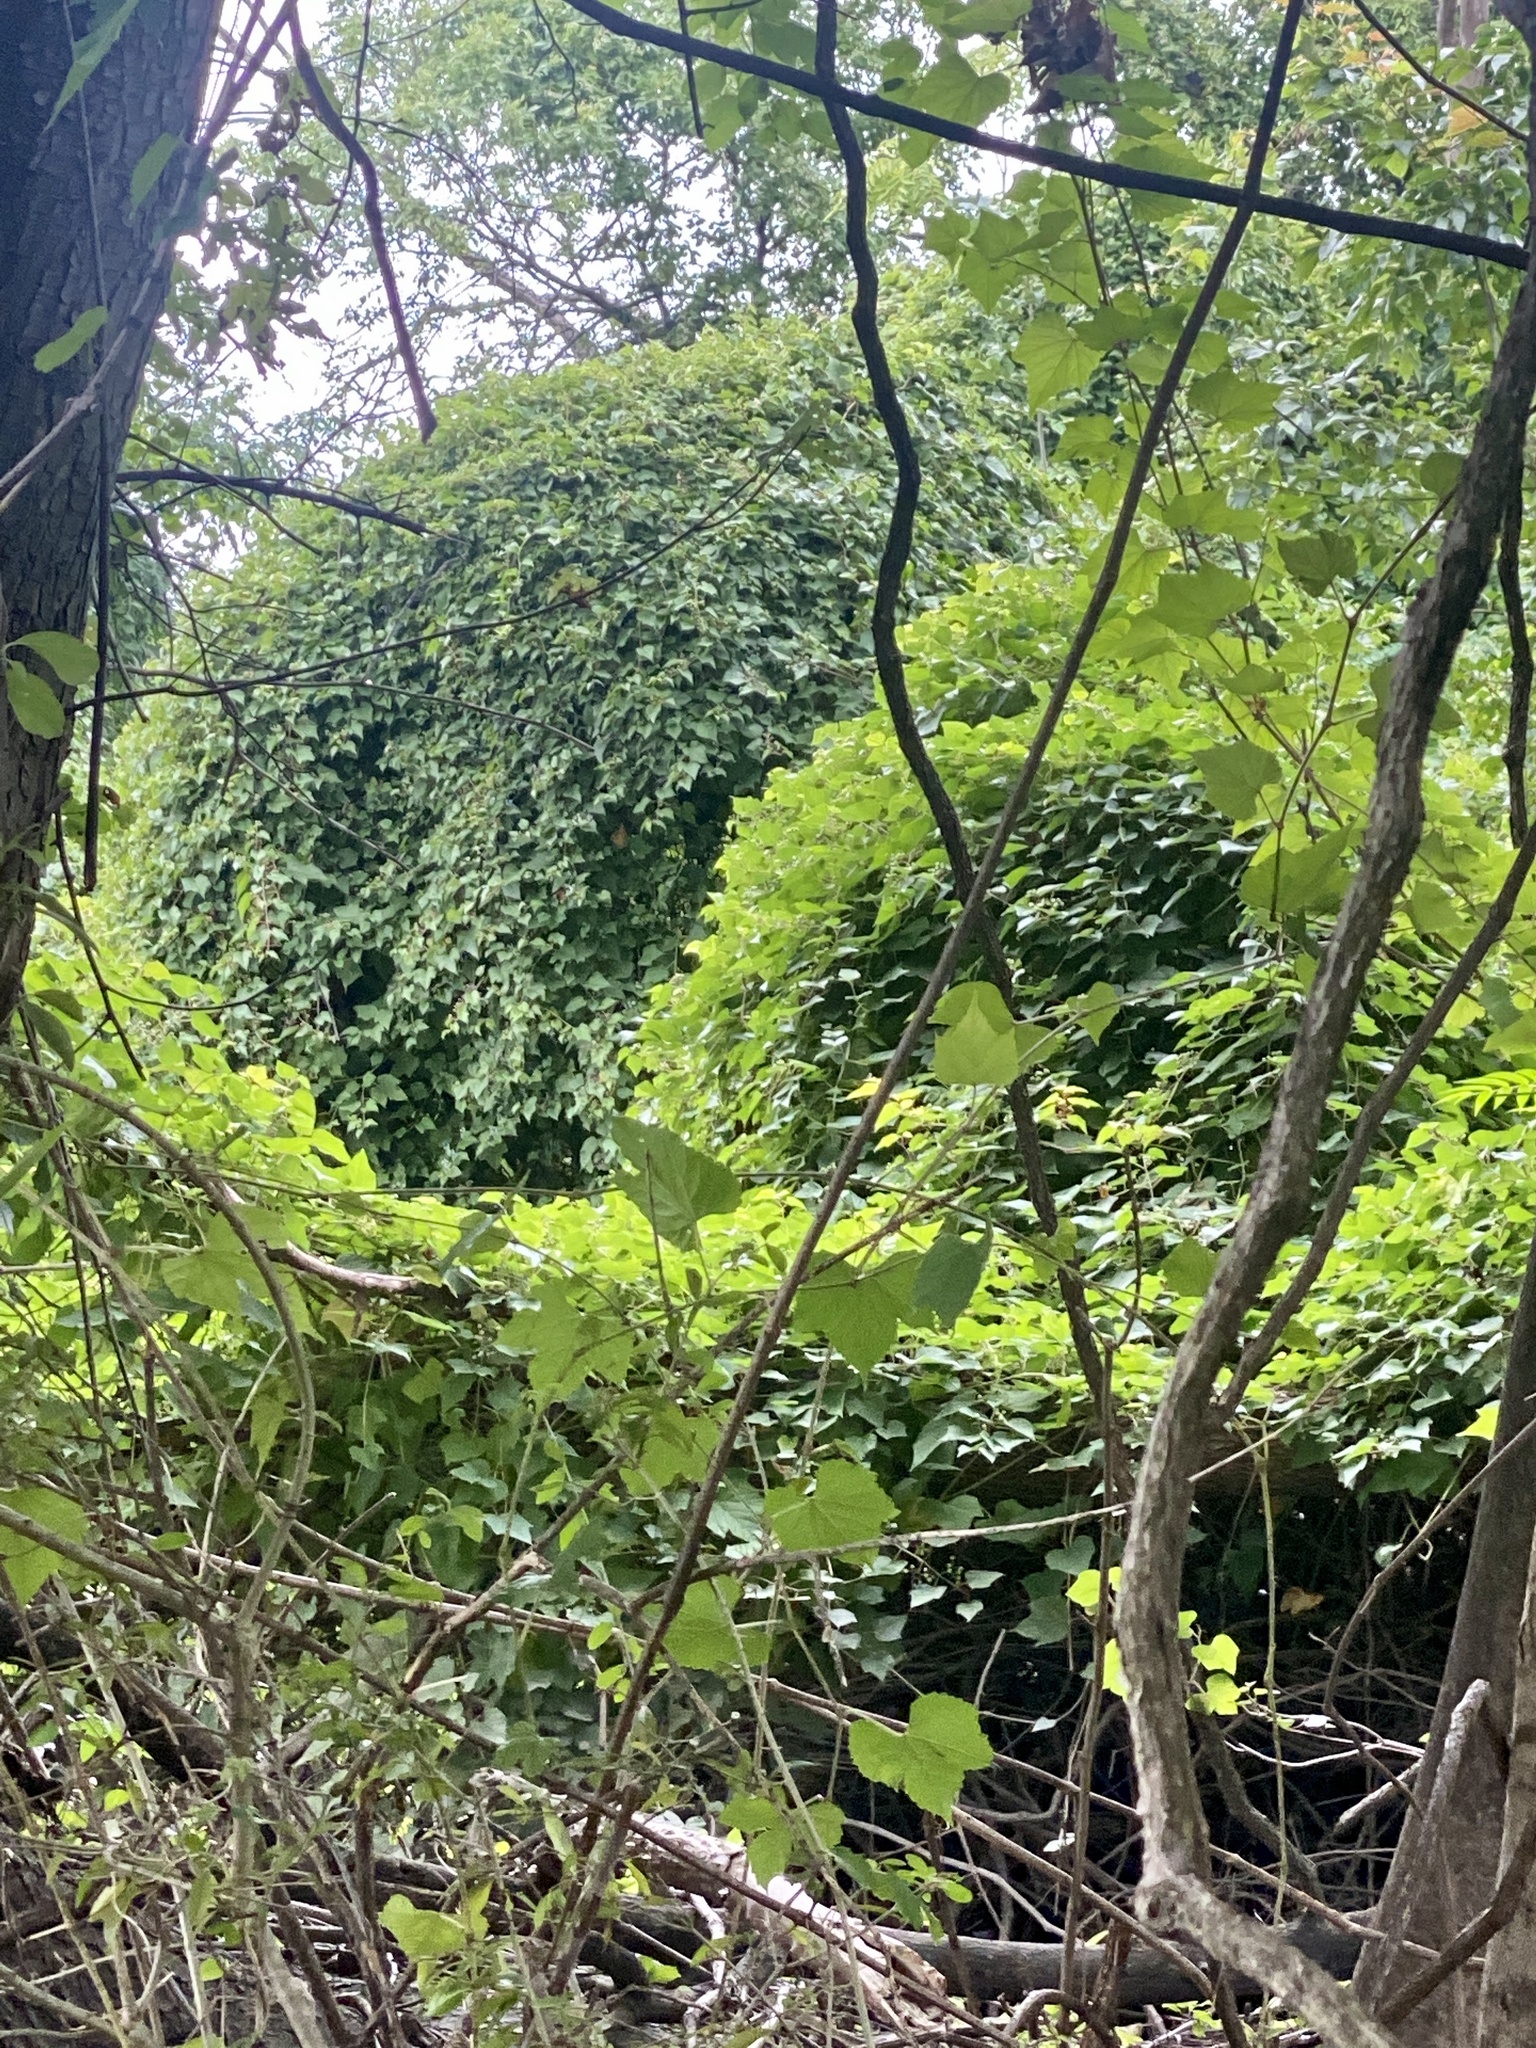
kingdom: Plantae
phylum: Tracheophyta
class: Magnoliopsida
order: Vitales
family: Vitaceae
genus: Ampelopsis
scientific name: Ampelopsis glandulosa
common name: Amur peppervine
